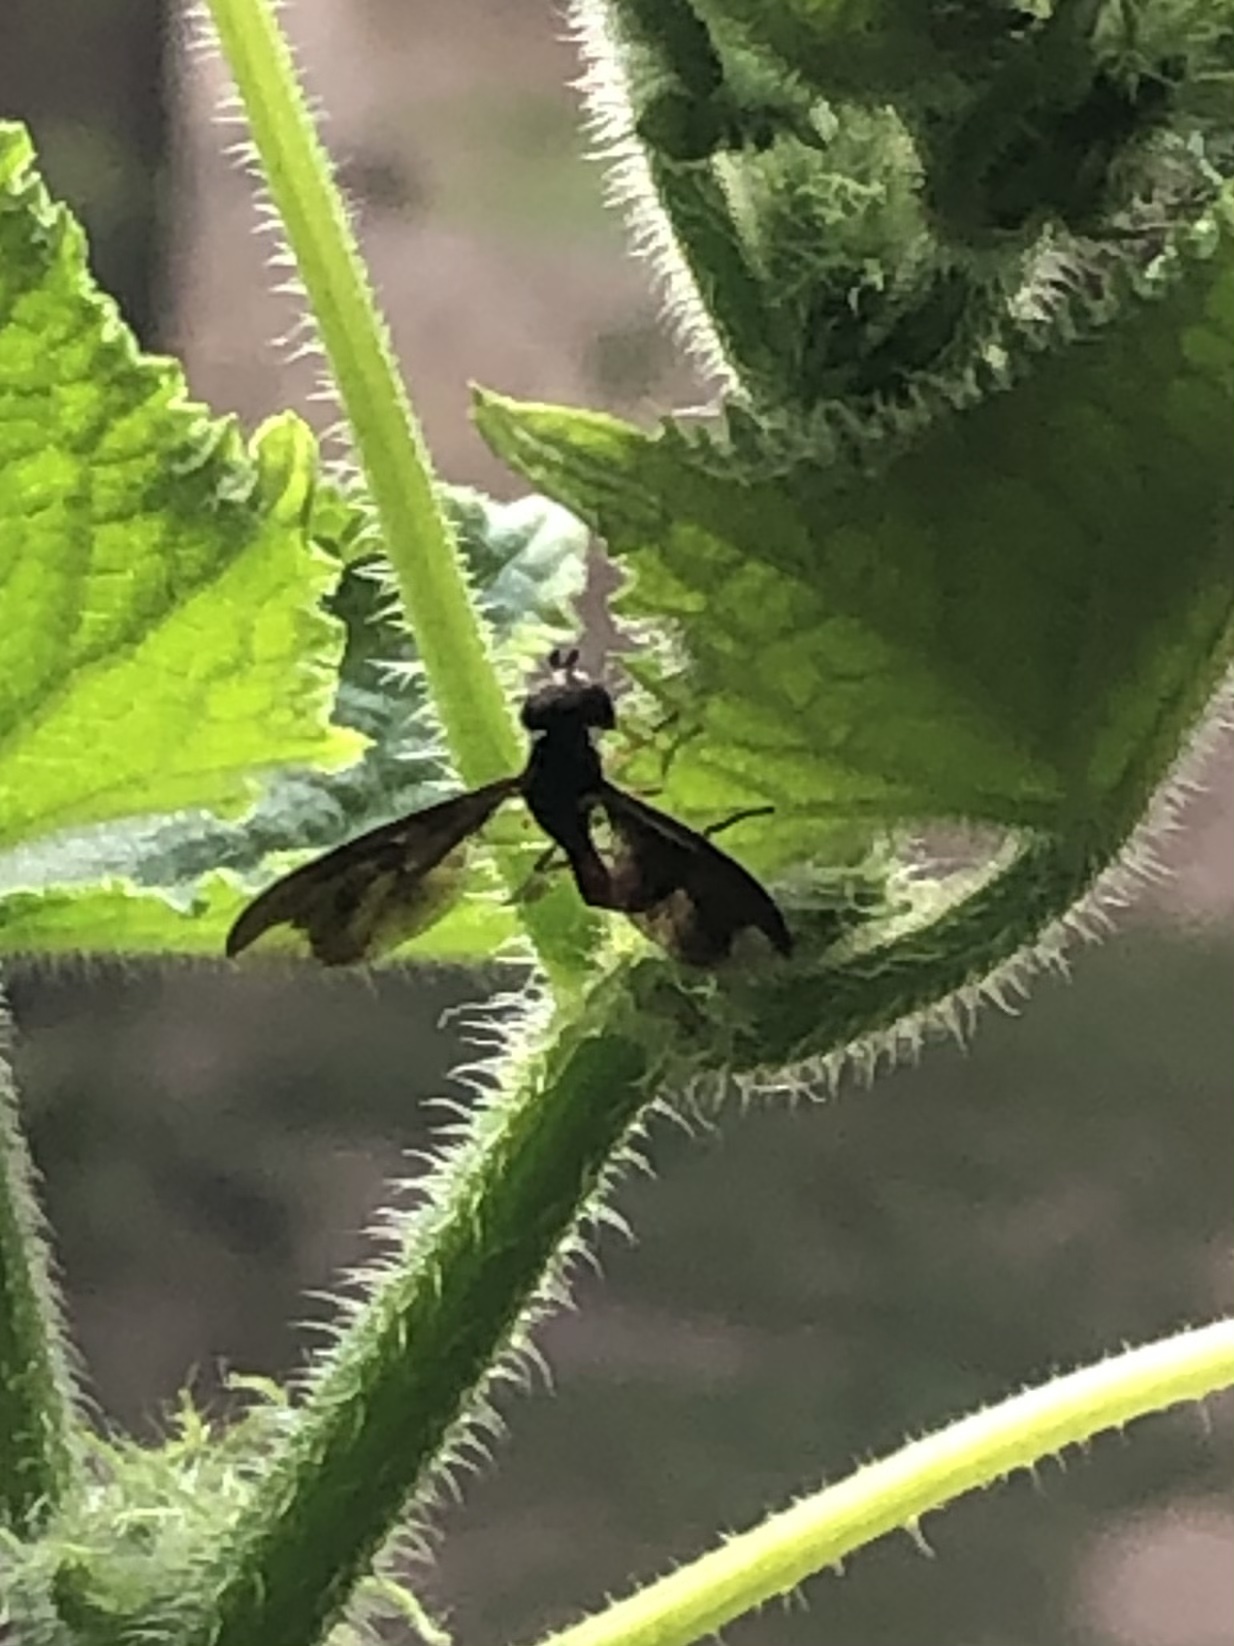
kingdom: Animalia
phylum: Arthropoda
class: Insecta
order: Diptera
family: Syrphidae
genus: Ocyptamus
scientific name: Ocyptamus fuscipennis
